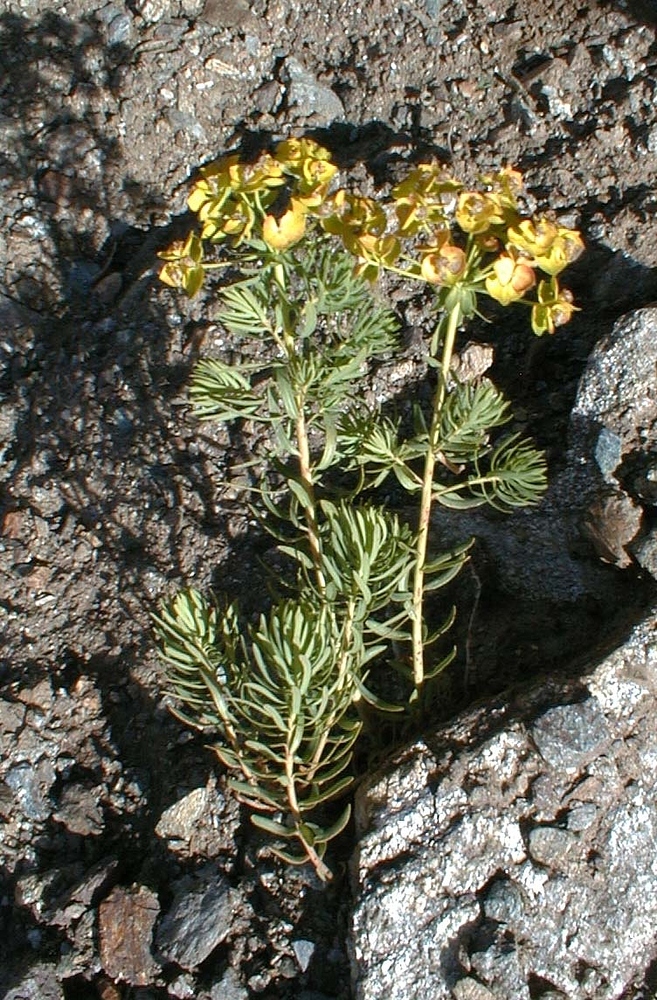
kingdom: Plantae
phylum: Tracheophyta
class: Magnoliopsida
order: Malpighiales
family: Euphorbiaceae
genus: Euphorbia
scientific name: Euphorbia cyparissias
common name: Cypress spurge
